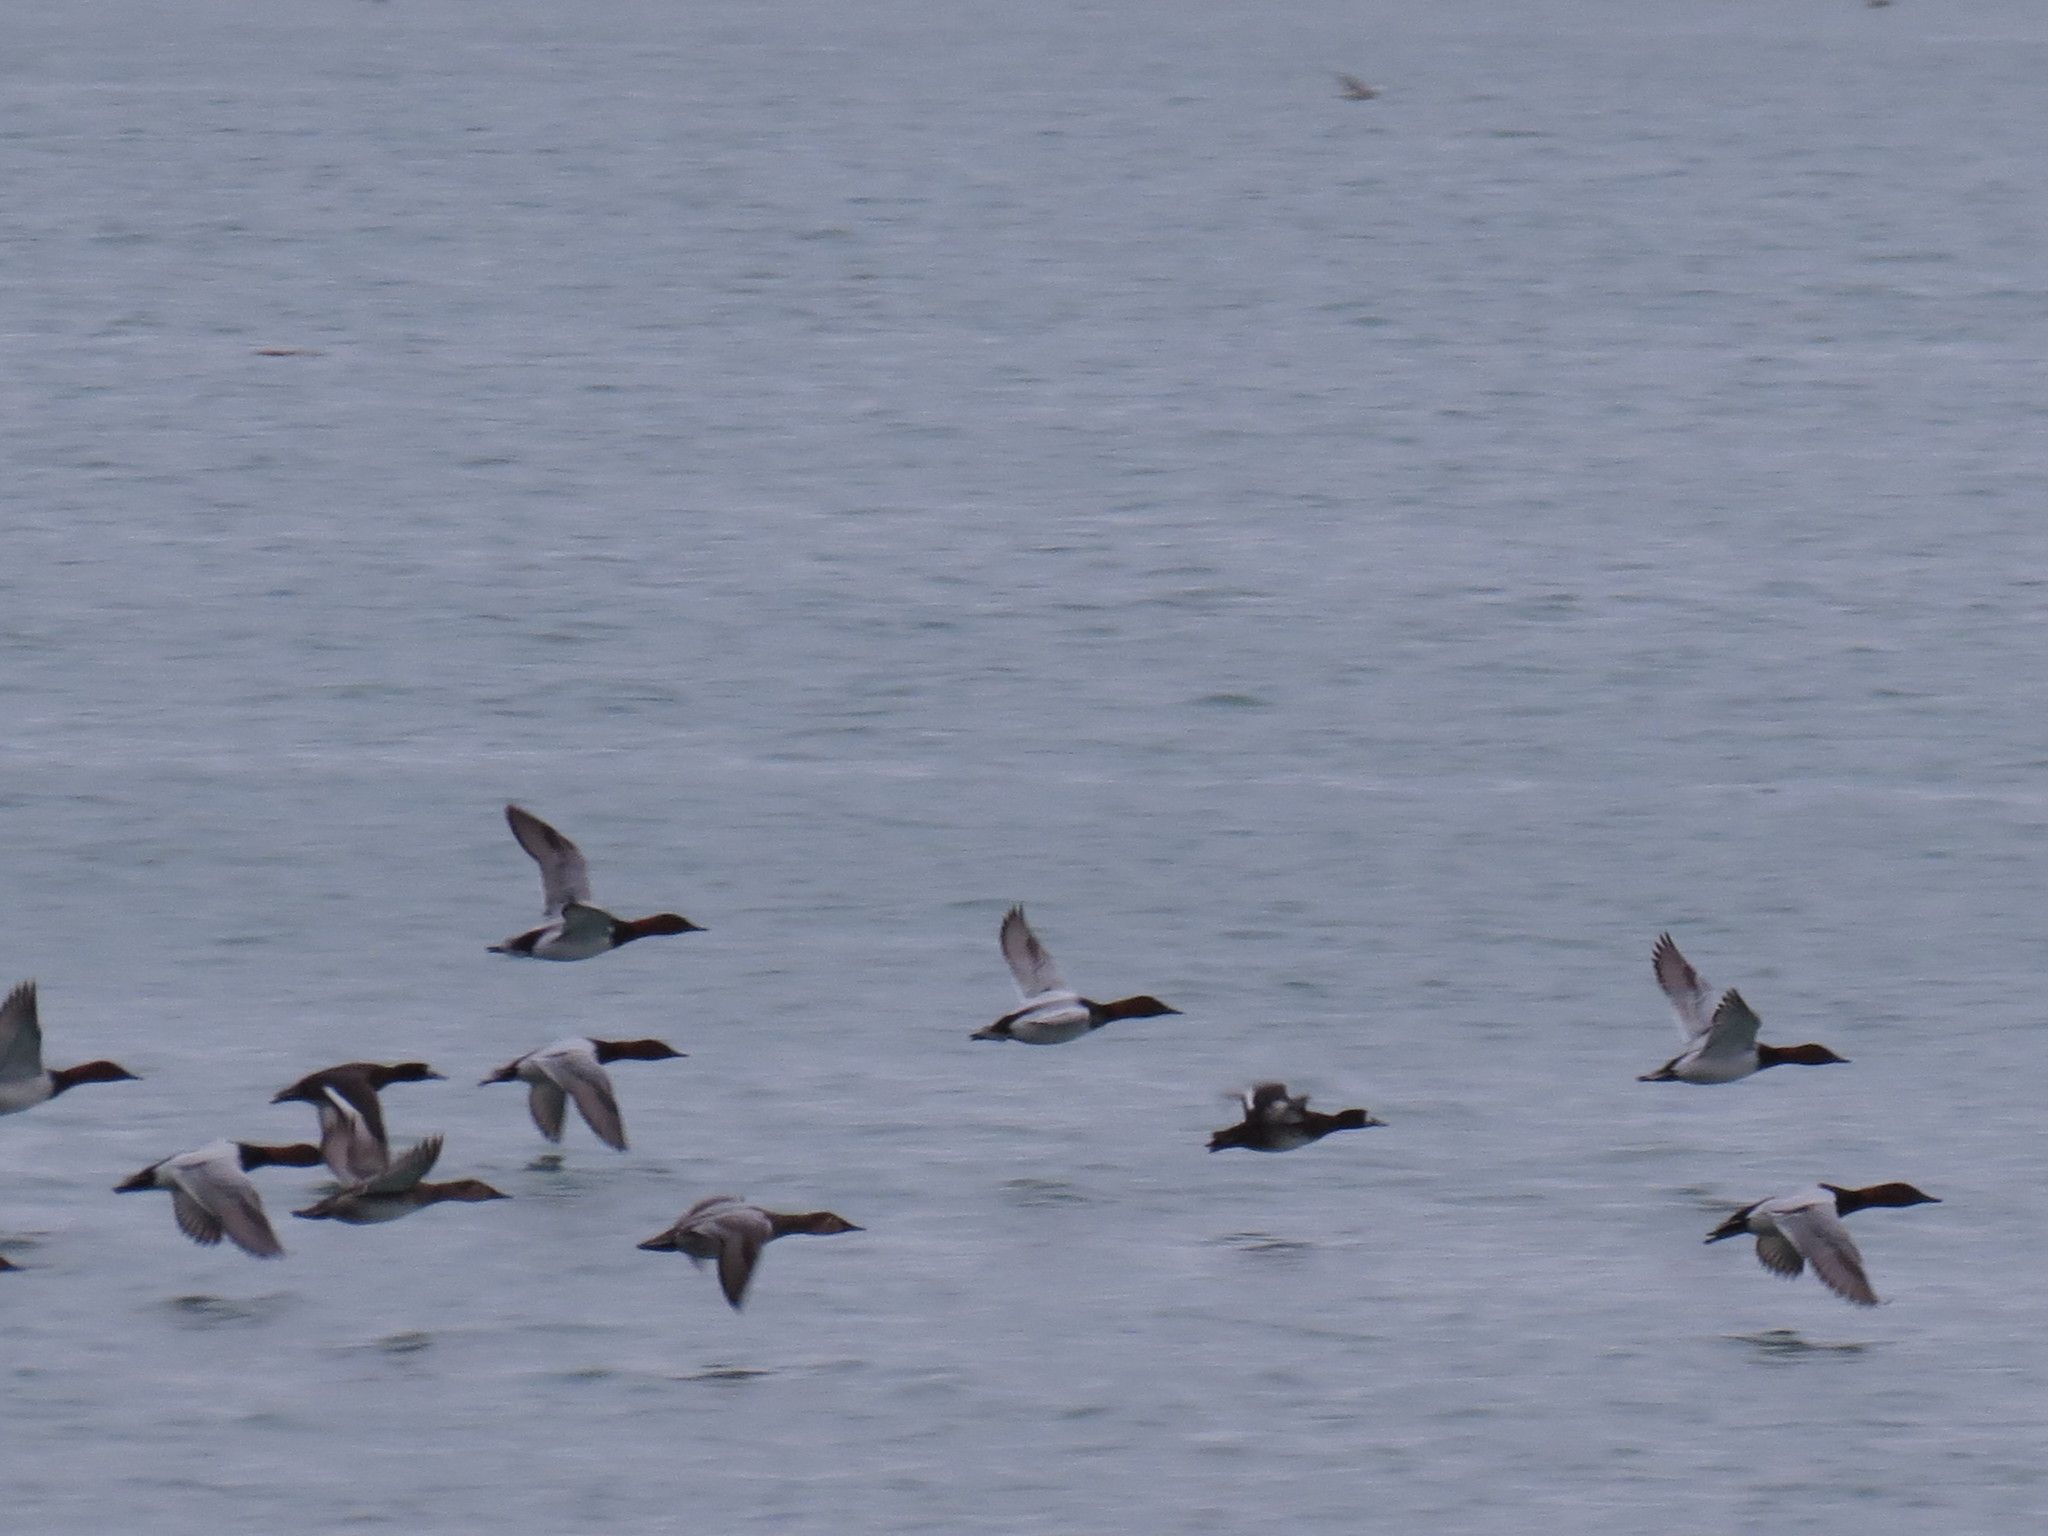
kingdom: Animalia
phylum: Chordata
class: Aves
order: Anseriformes
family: Anatidae
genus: Aythya
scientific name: Aythya valisineria
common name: Canvasback
